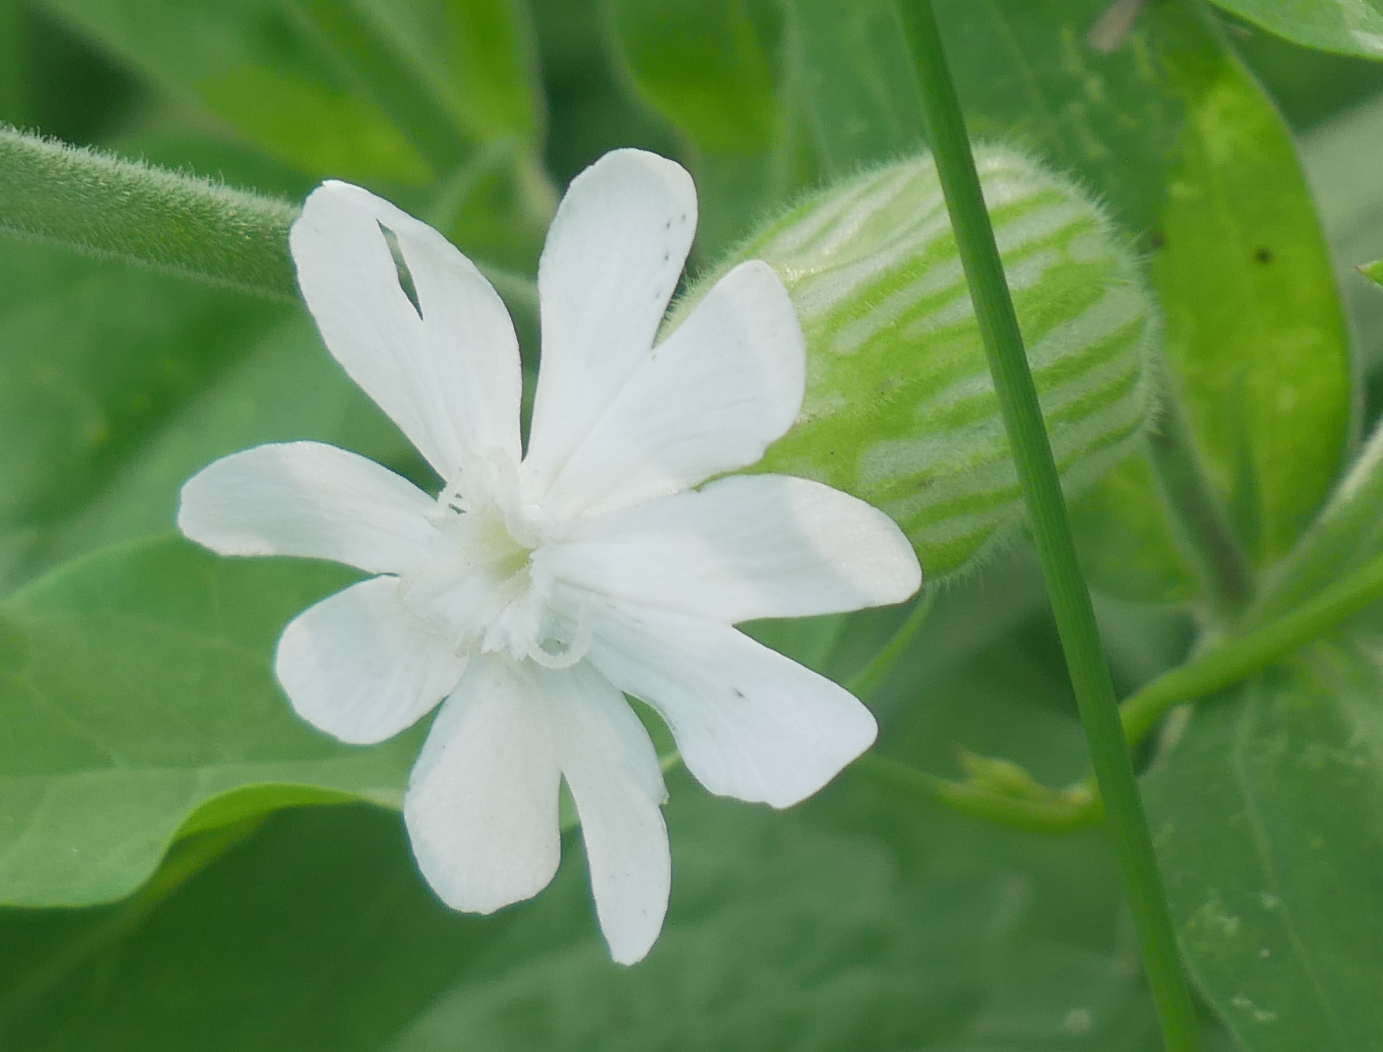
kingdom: Plantae
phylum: Tracheophyta
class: Magnoliopsida
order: Caryophyllales
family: Caryophyllaceae
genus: Silene
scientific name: Silene latifolia
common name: White campion
